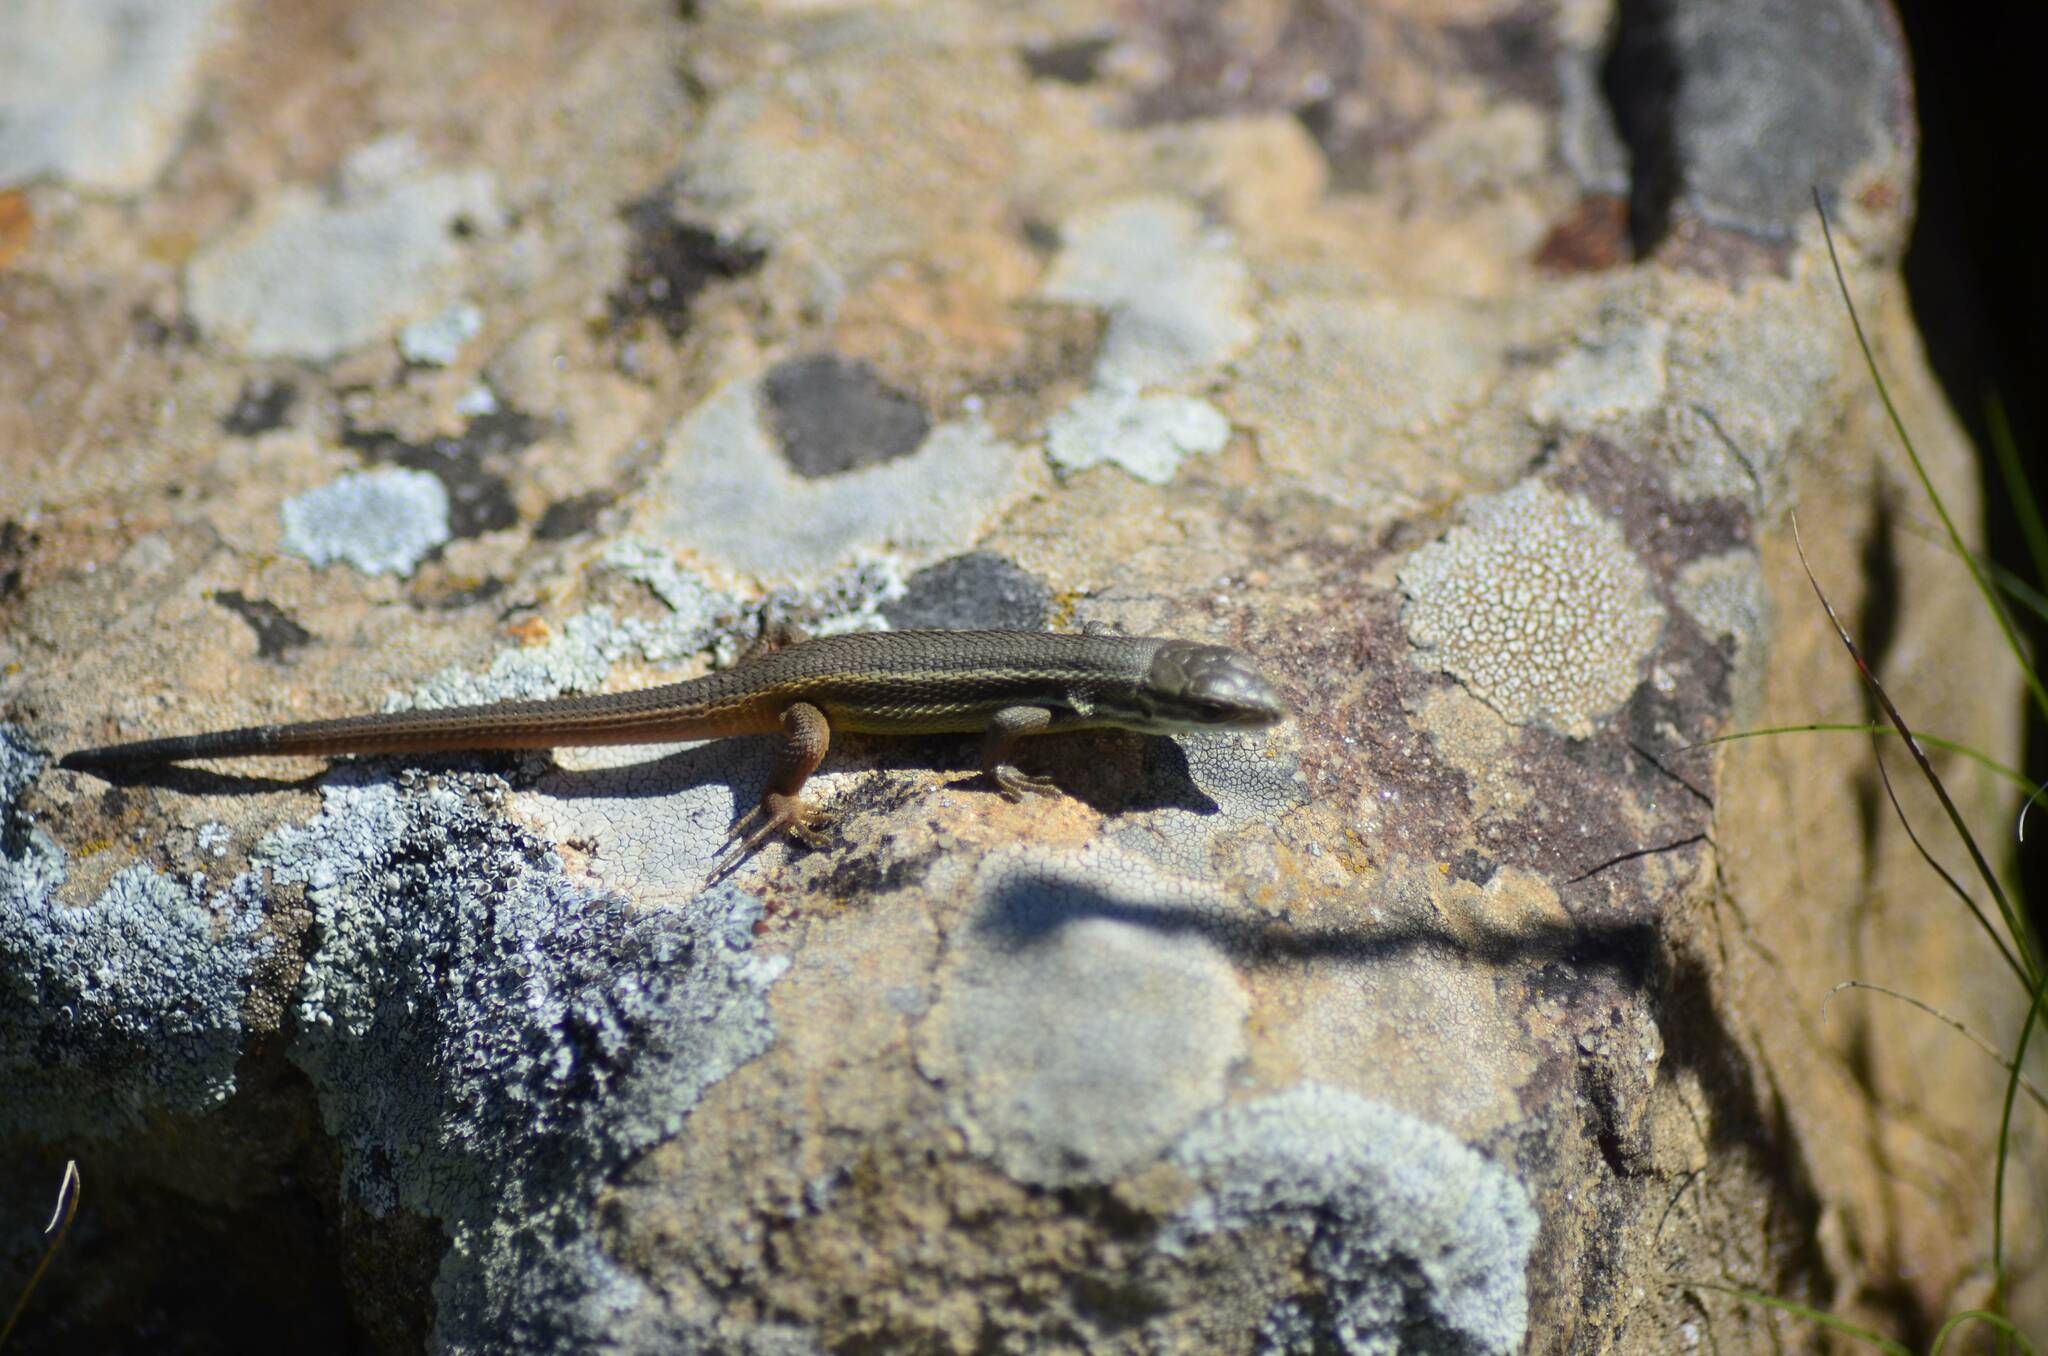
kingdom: Animalia
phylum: Chordata
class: Squamata
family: Lacertidae
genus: Psammodromus
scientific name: Psammodromus algirus
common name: Algerian psammodromus
